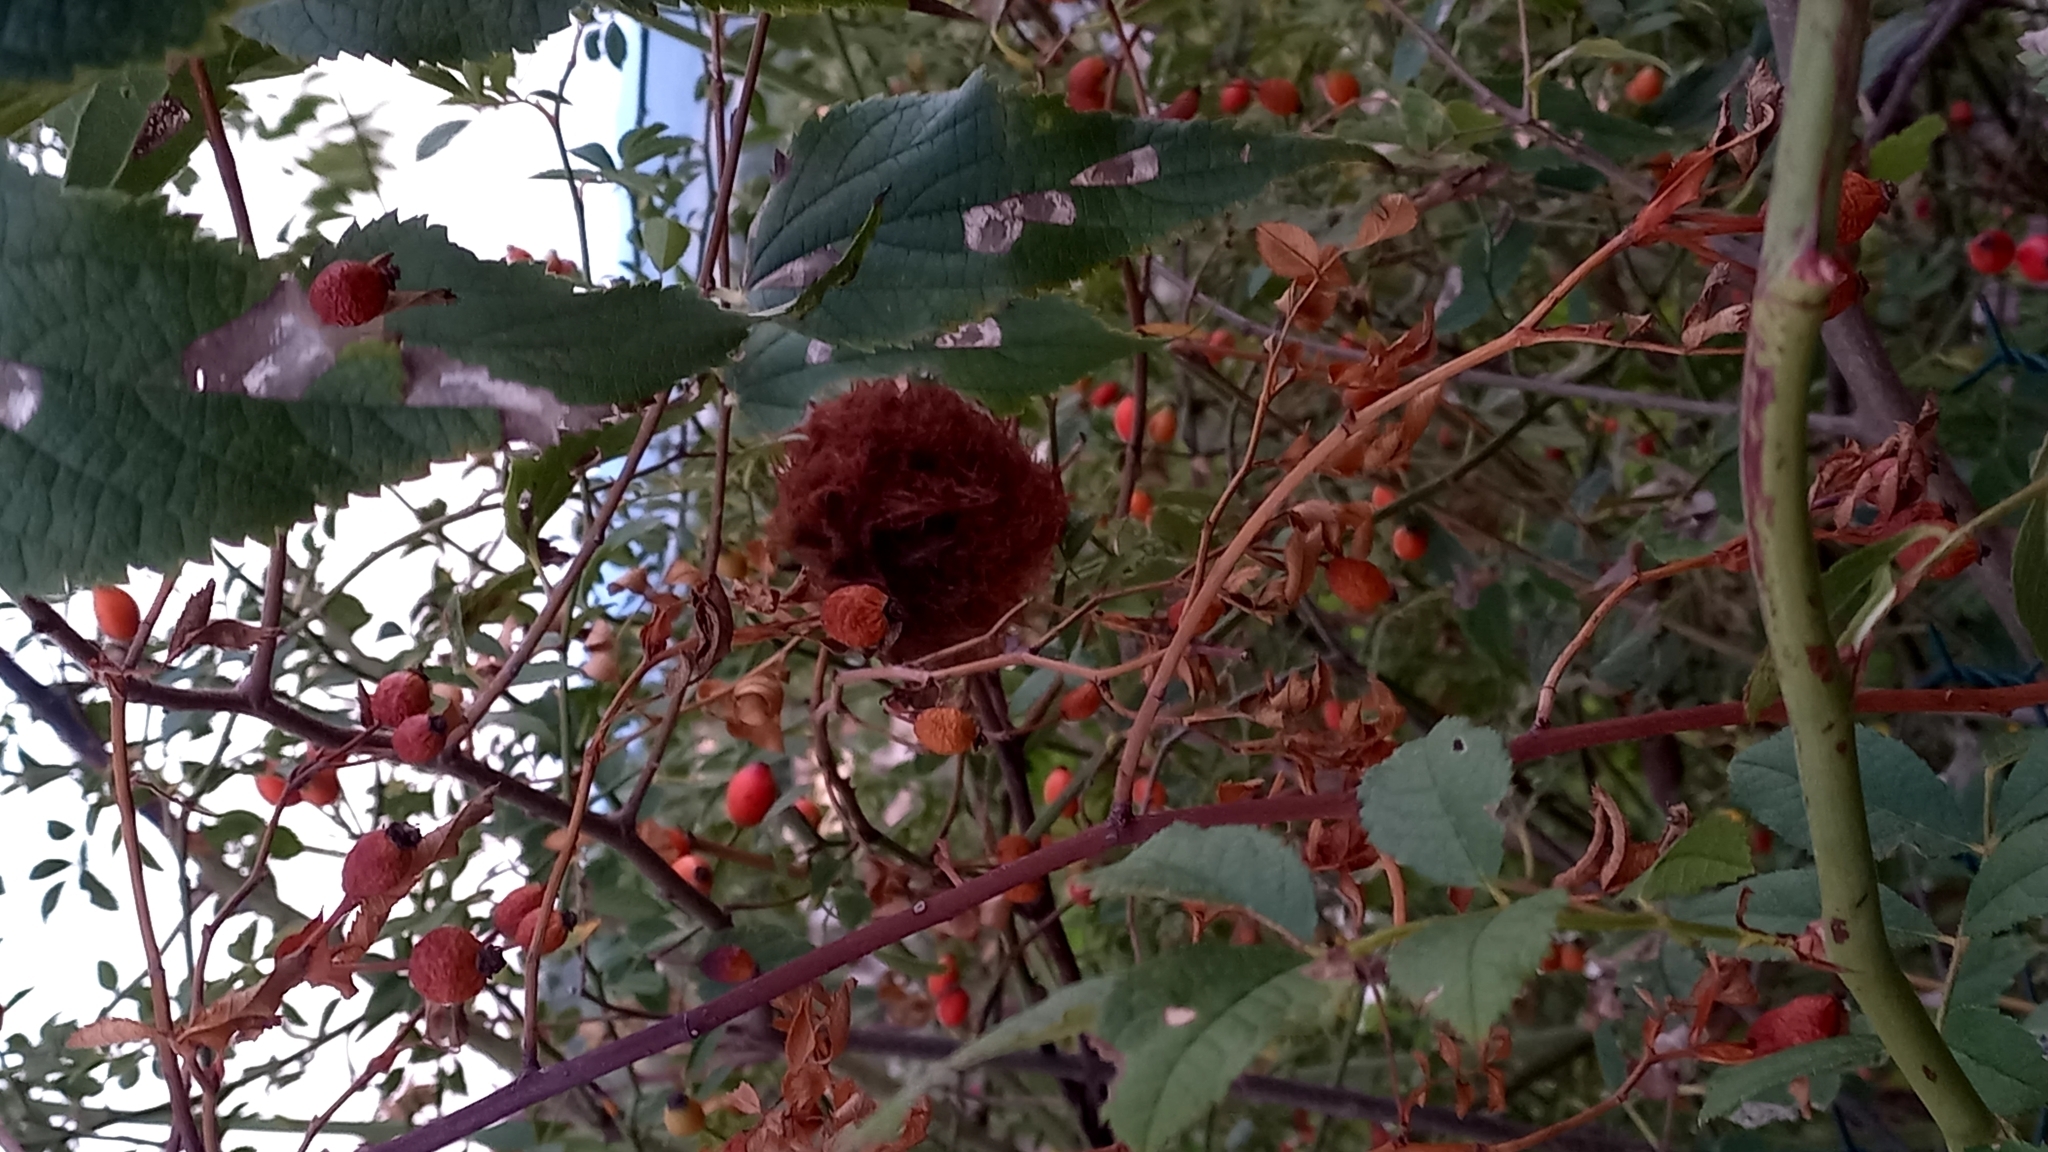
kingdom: Animalia
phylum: Arthropoda
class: Insecta
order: Hymenoptera
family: Cynipidae
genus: Diplolepis
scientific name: Diplolepis rosae
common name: Bedeguar gall
